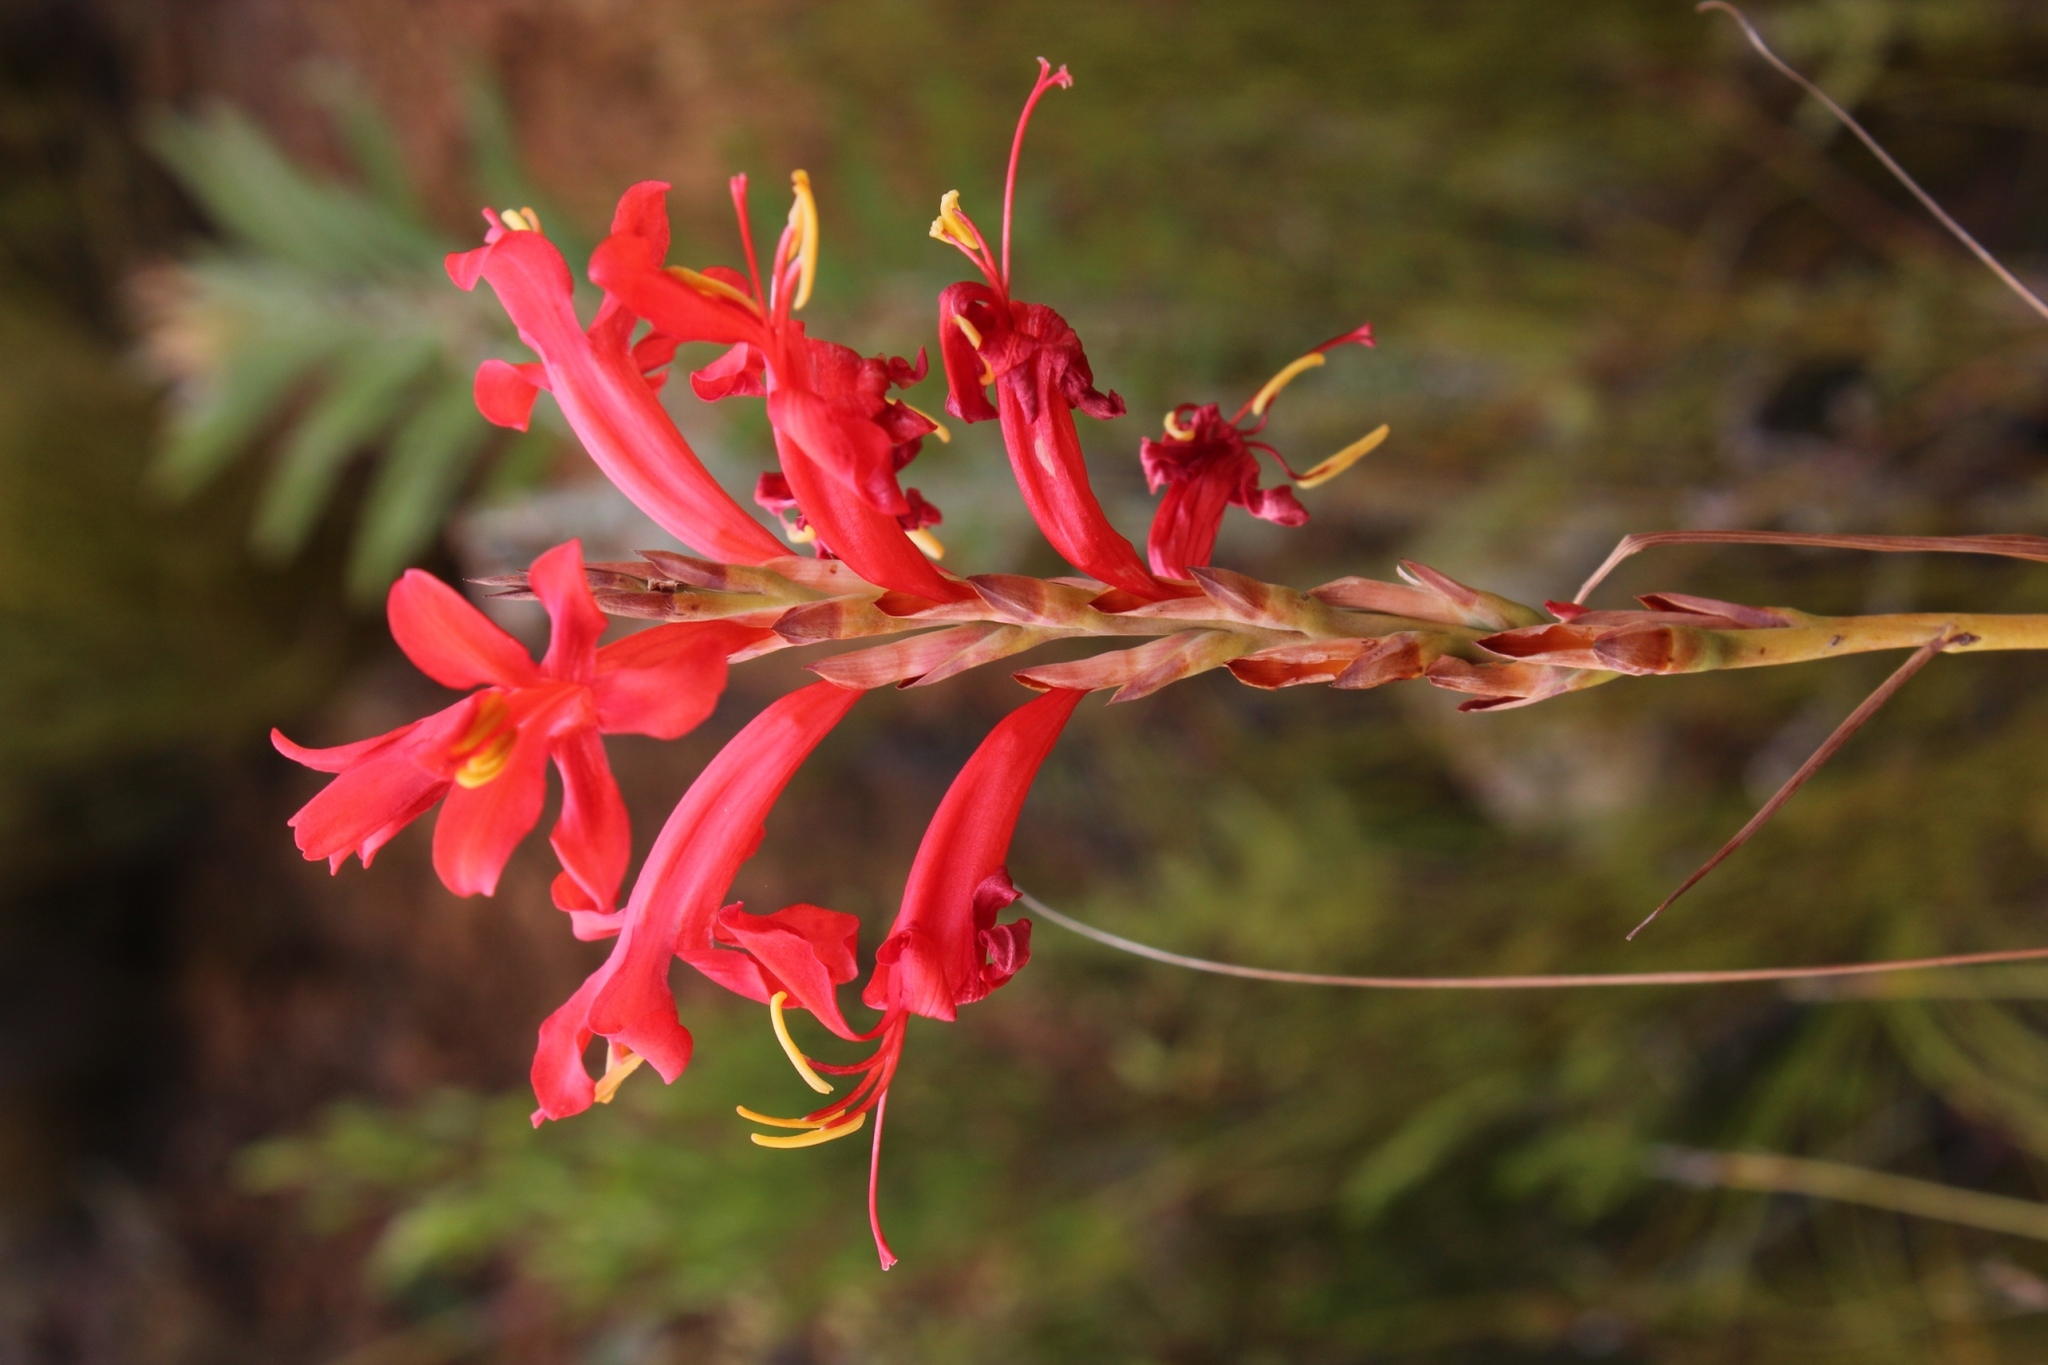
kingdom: Plantae
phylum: Tracheophyta
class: Liliopsida
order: Asparagales
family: Iridaceae
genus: Tritoniopsis
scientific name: Tritoniopsis triticea
